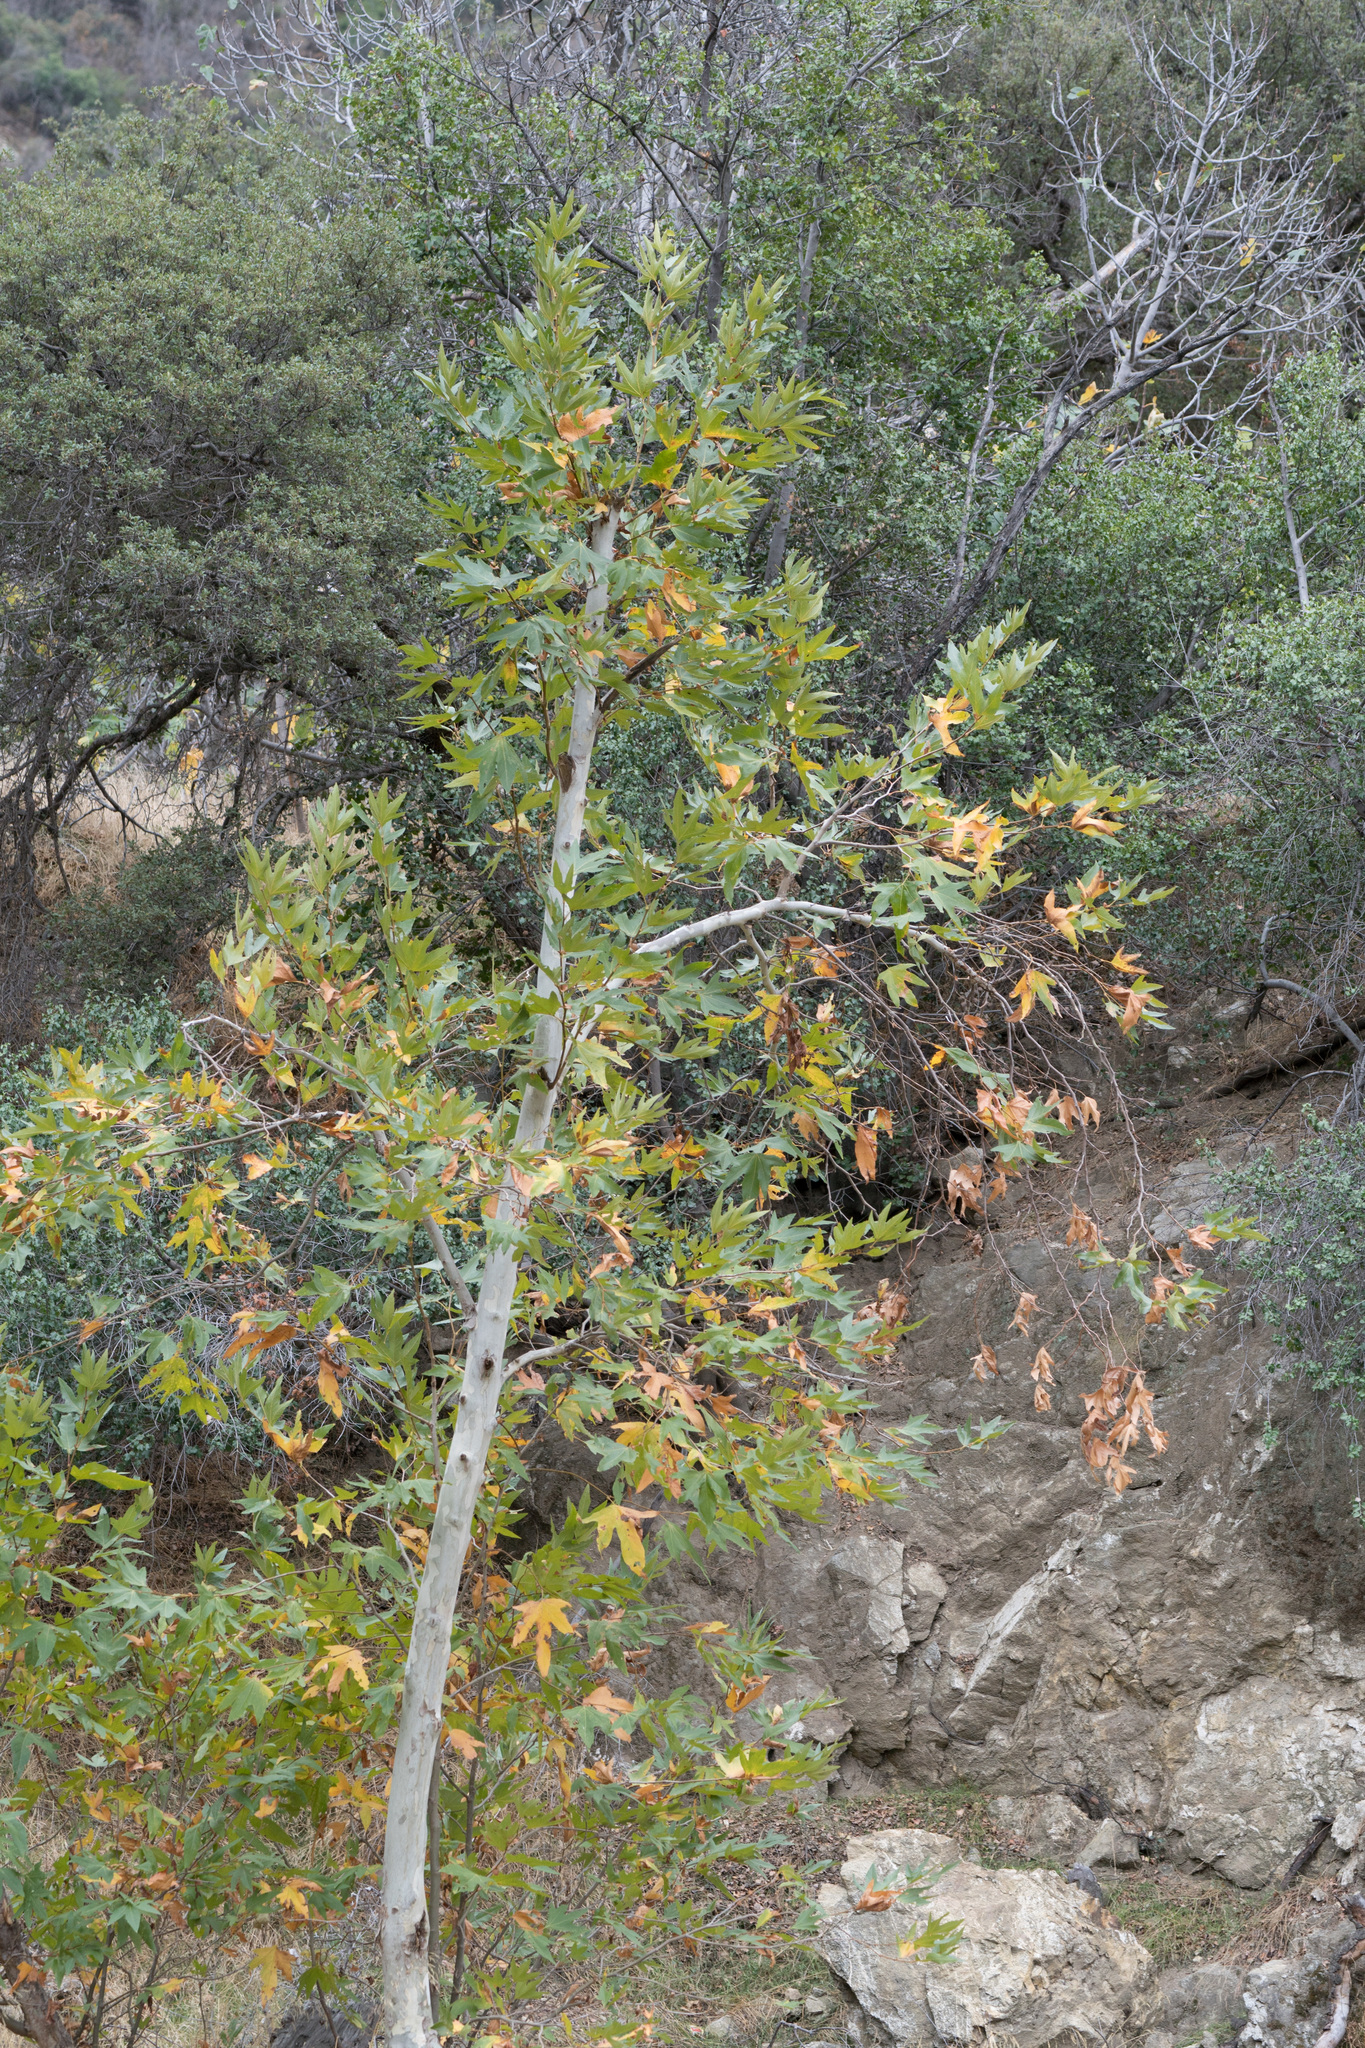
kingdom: Plantae
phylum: Tracheophyta
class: Magnoliopsida
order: Proteales
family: Platanaceae
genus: Platanus
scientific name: Platanus racemosa
